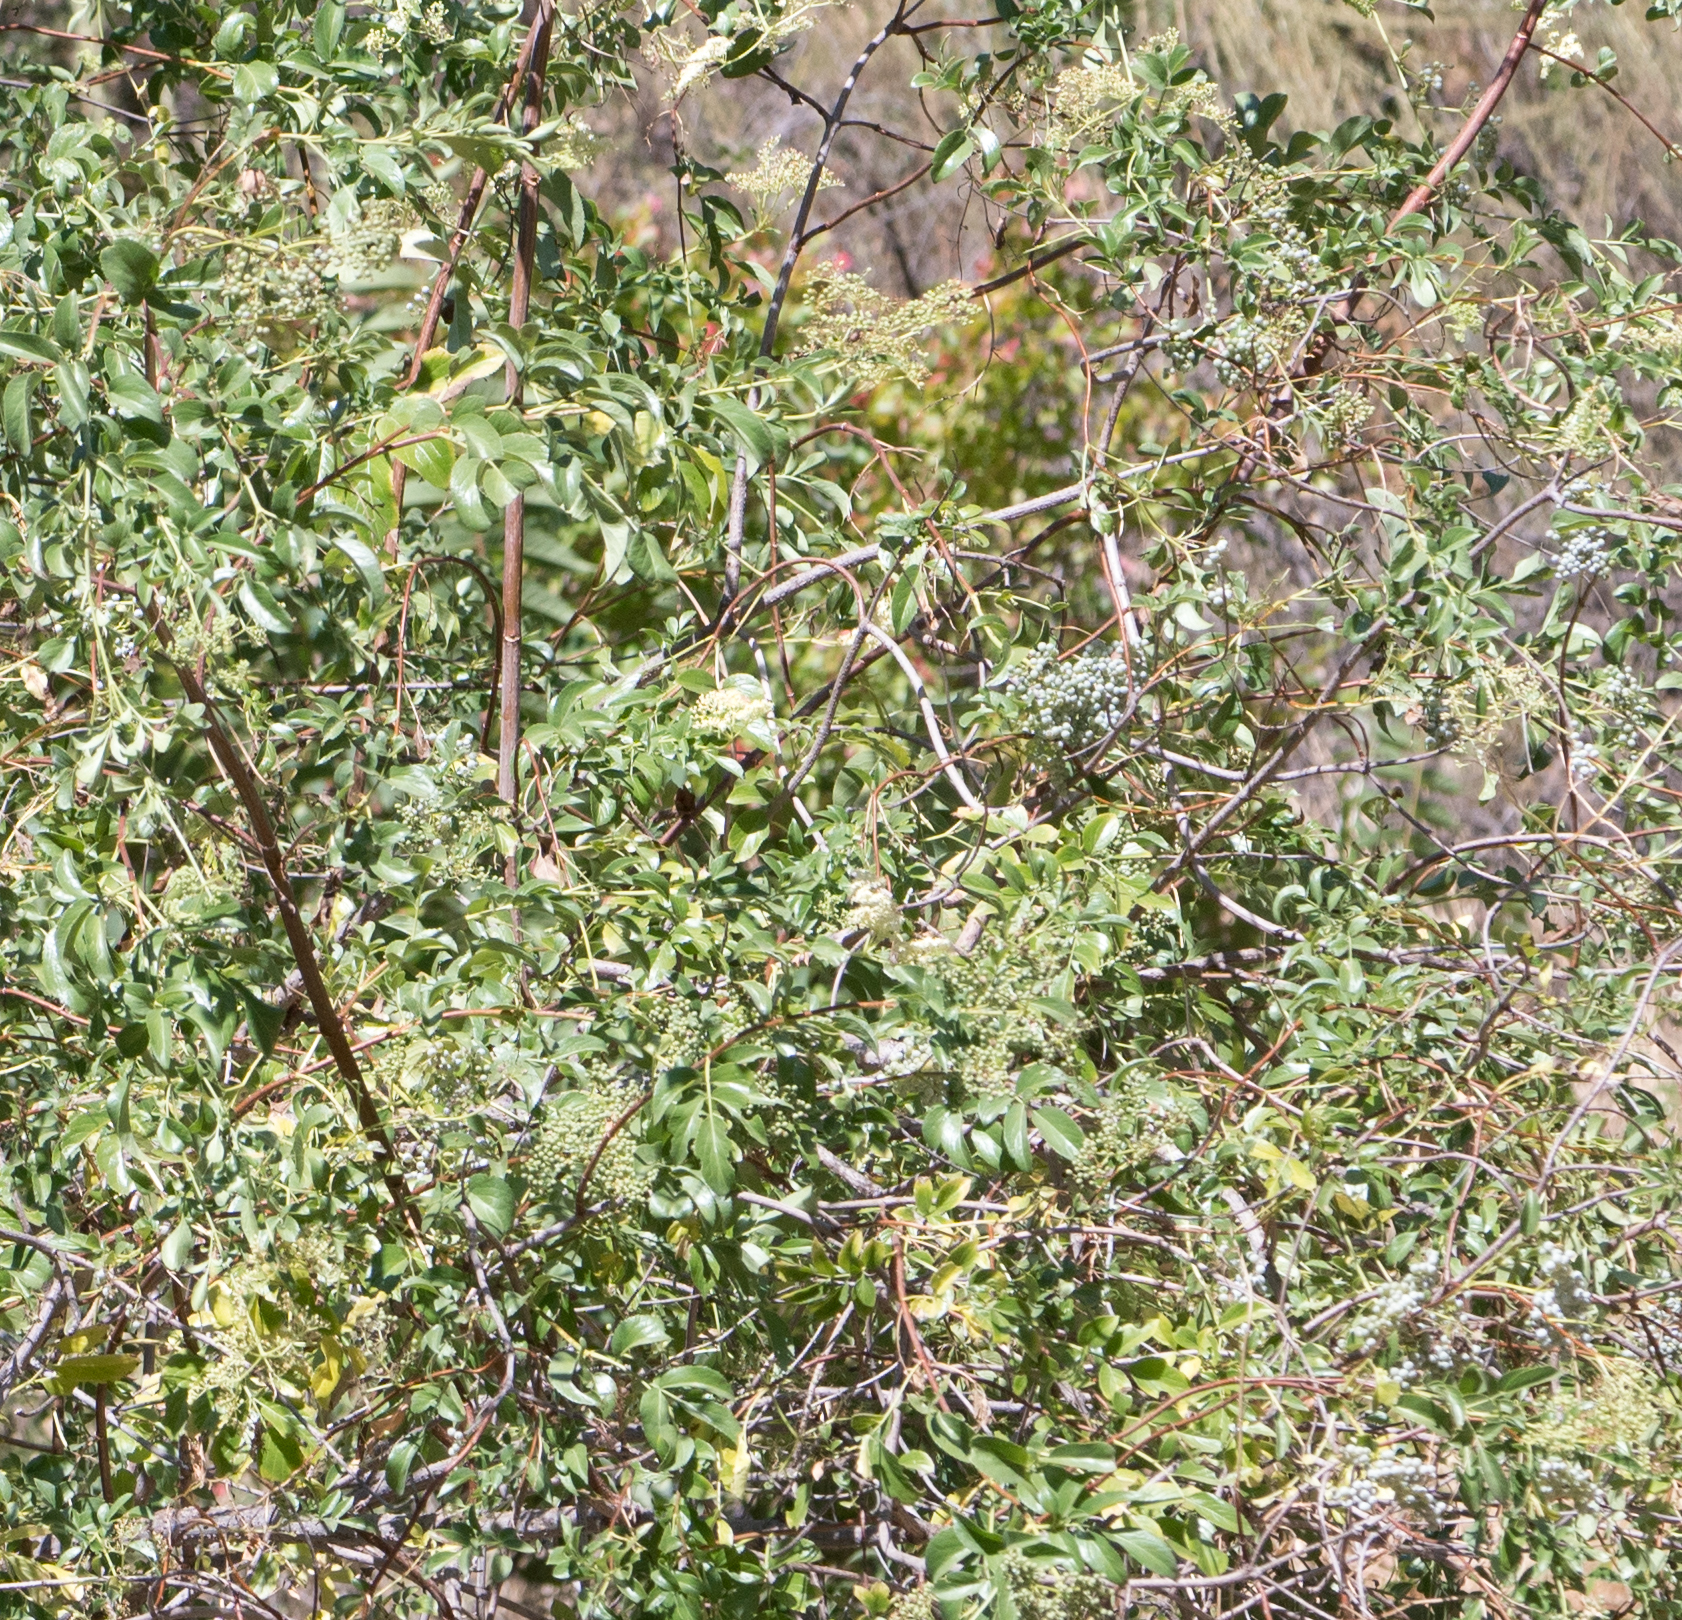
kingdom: Plantae
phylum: Tracheophyta
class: Magnoliopsida
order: Dipsacales
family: Viburnaceae
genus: Sambucus
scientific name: Sambucus cerulea
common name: Blue elder
